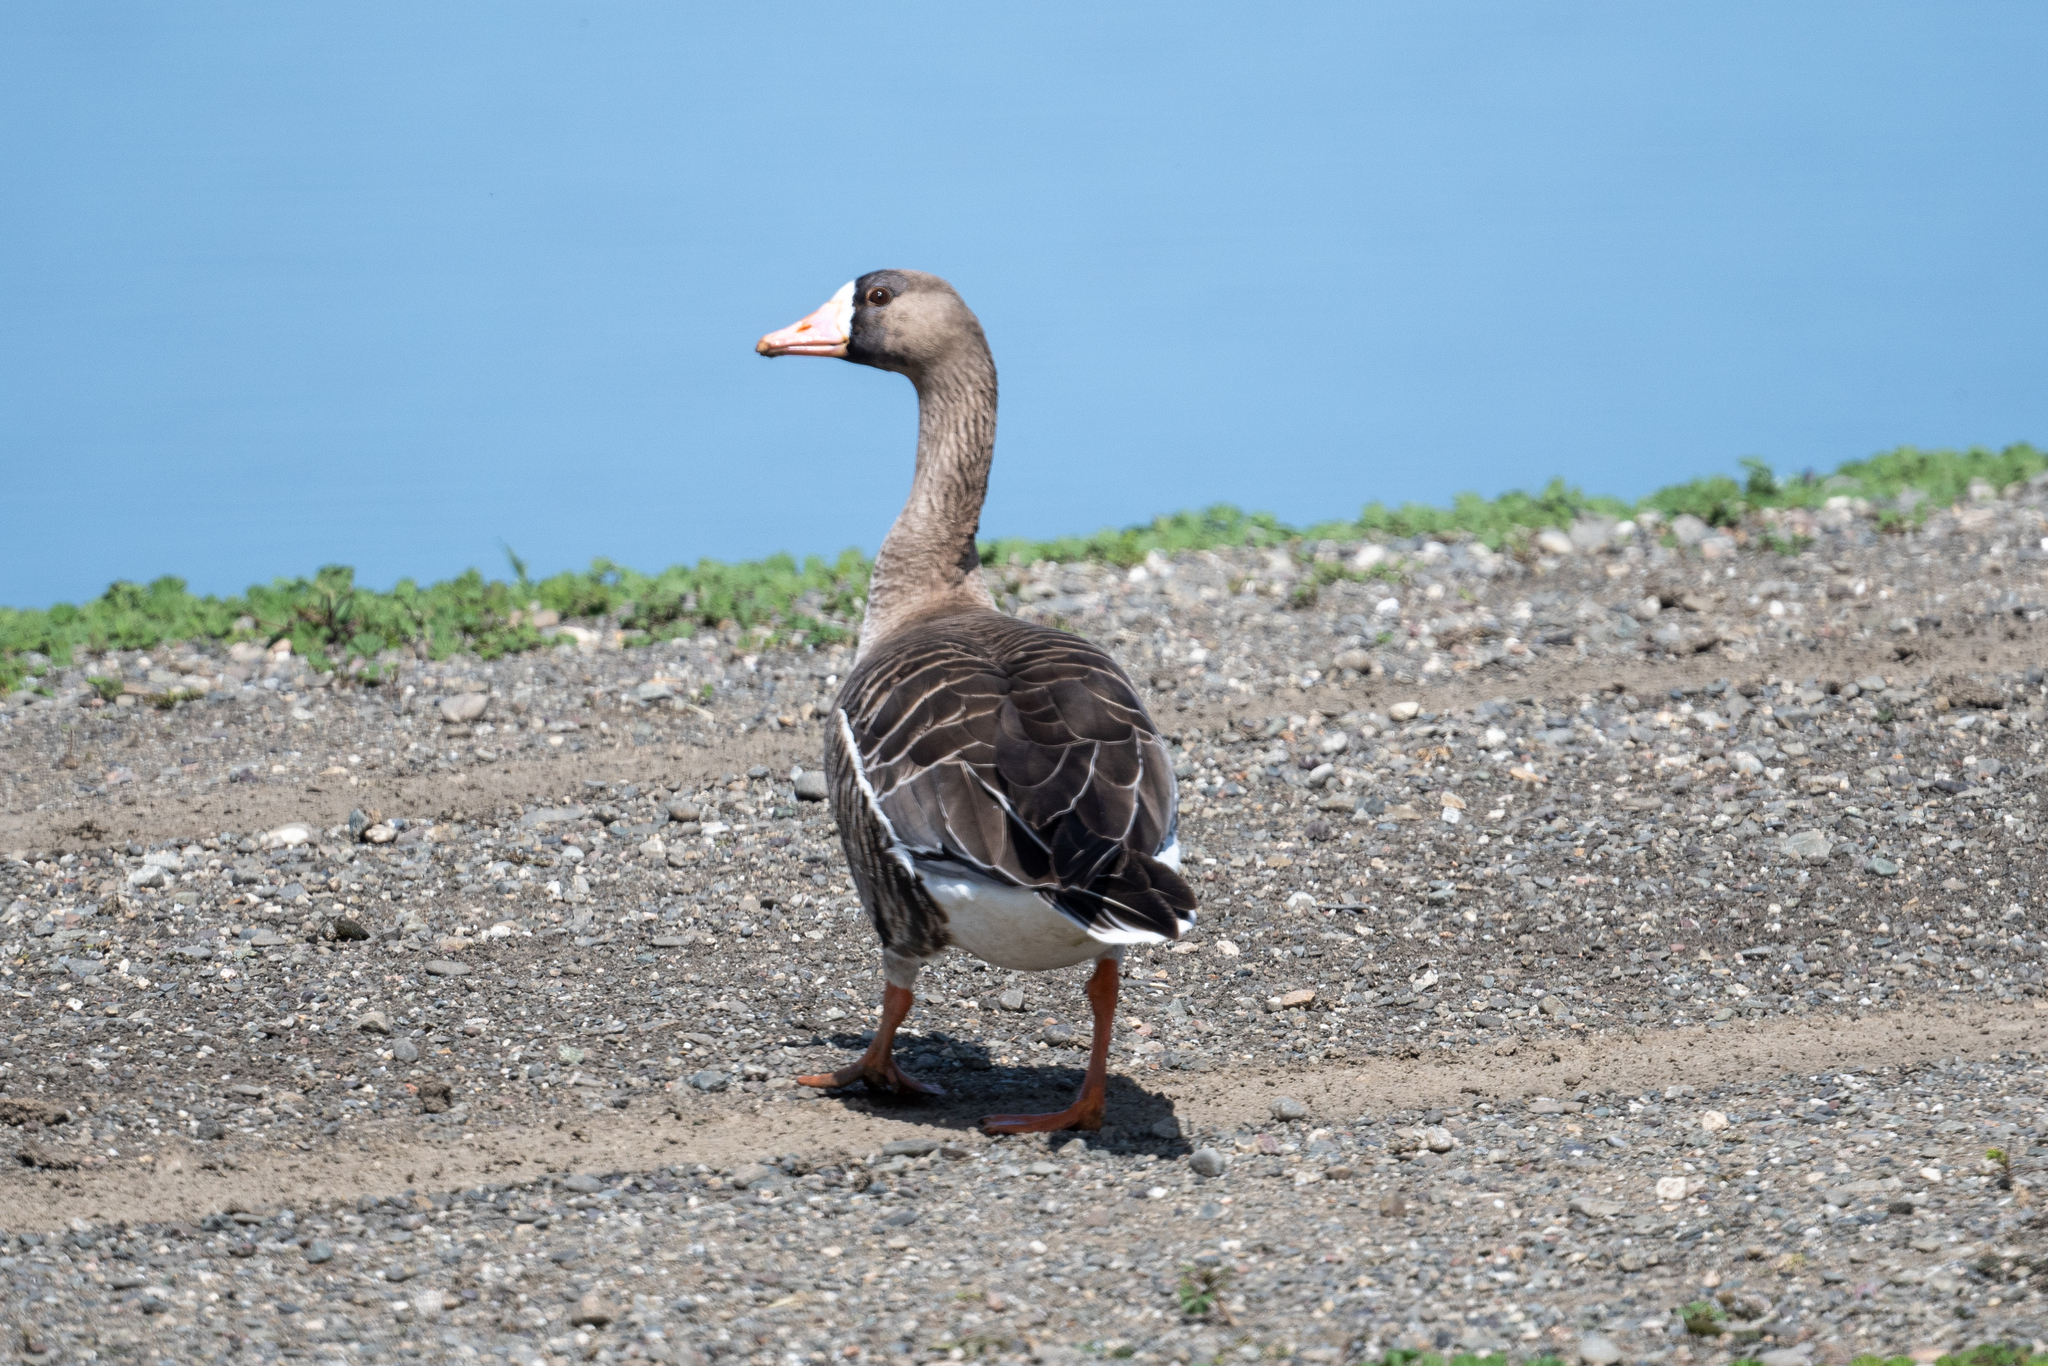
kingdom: Animalia
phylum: Chordata
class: Aves
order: Anseriformes
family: Anatidae
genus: Anser
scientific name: Anser albifrons
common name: Greater white-fronted goose
